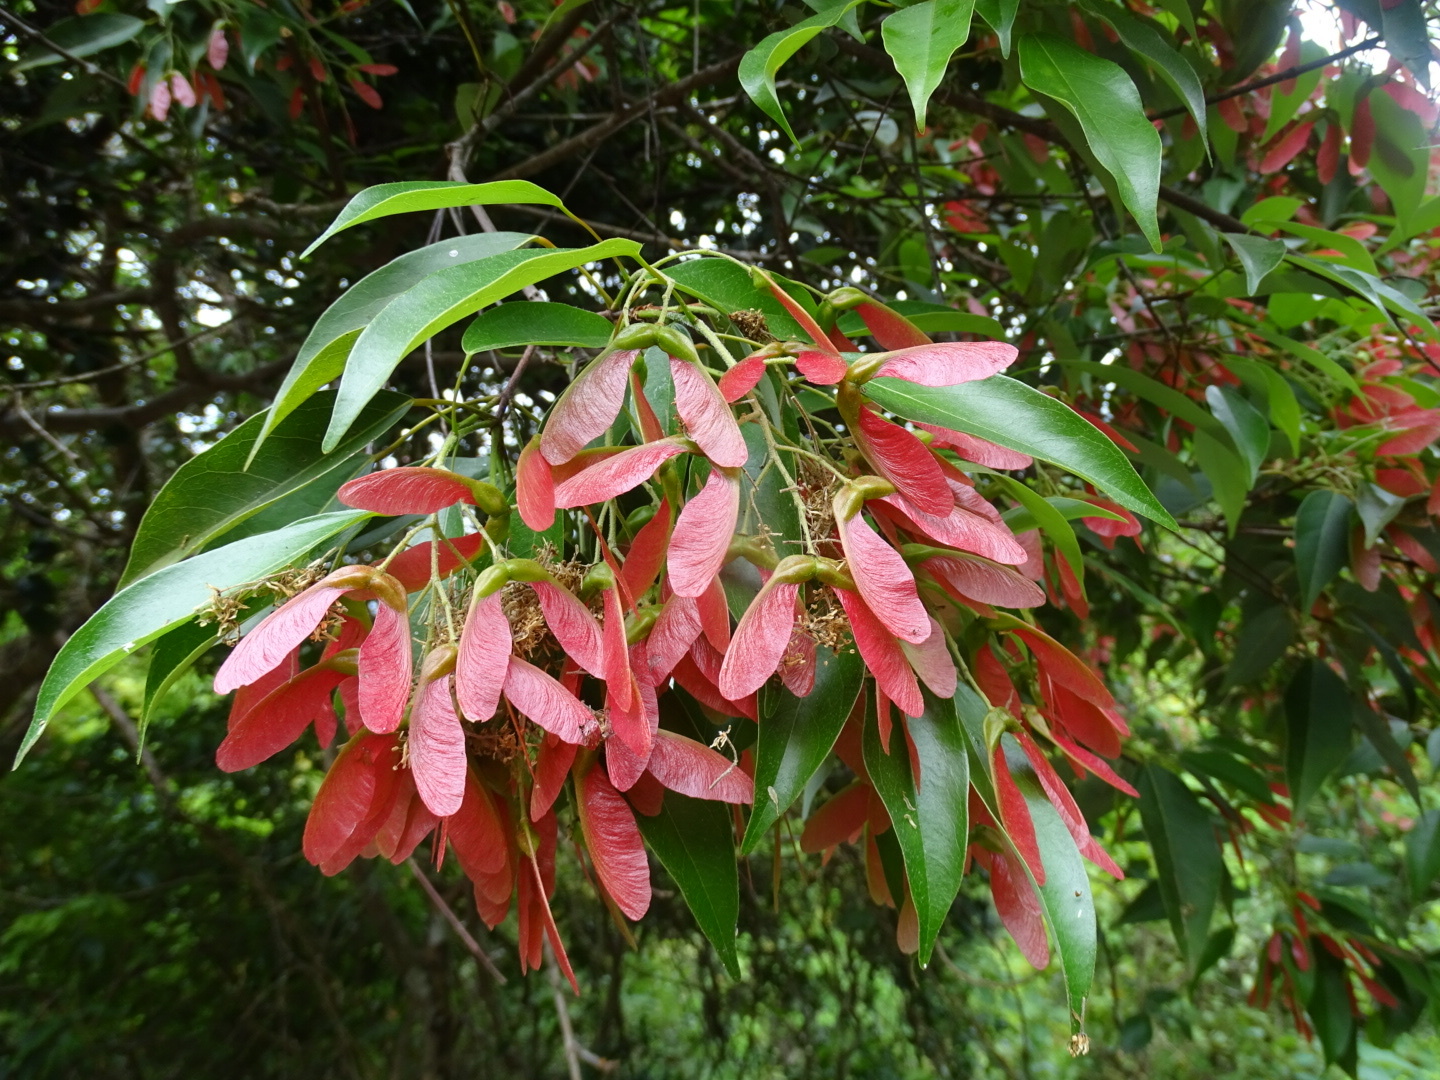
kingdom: Plantae
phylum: Tracheophyta
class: Magnoliopsida
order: Sapindales
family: Sapindaceae
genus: Acer
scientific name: Acer sino-oblongum
